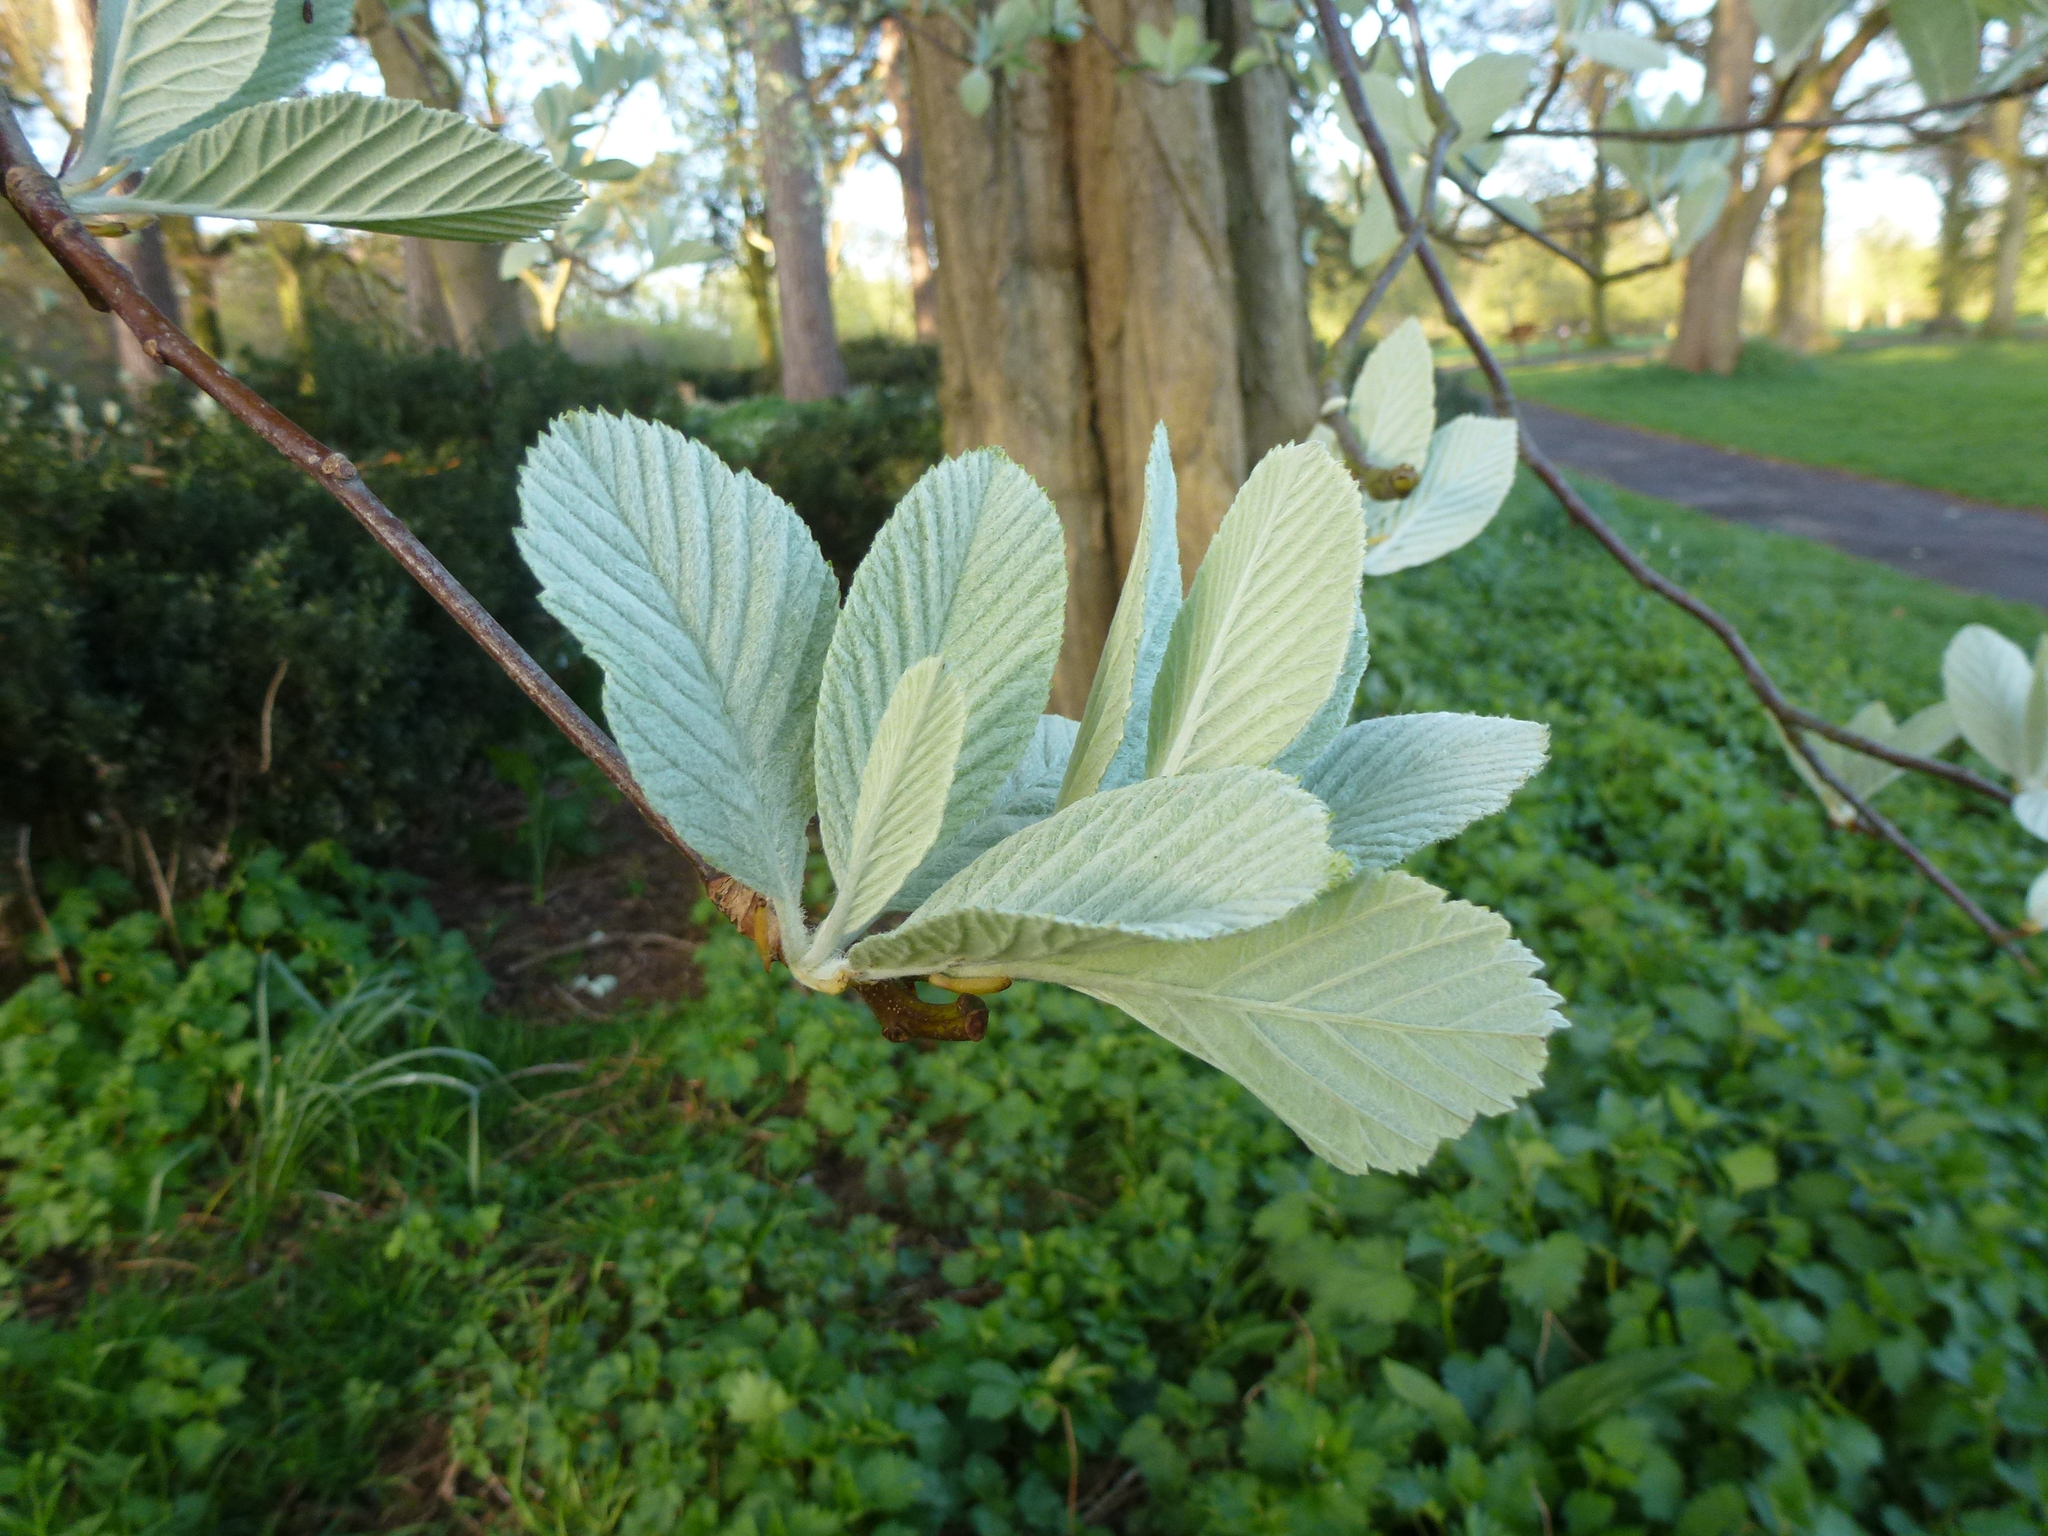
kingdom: Plantae
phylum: Tracheophyta
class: Magnoliopsida
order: Rosales
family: Rosaceae
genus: Aria
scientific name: Aria edulis
